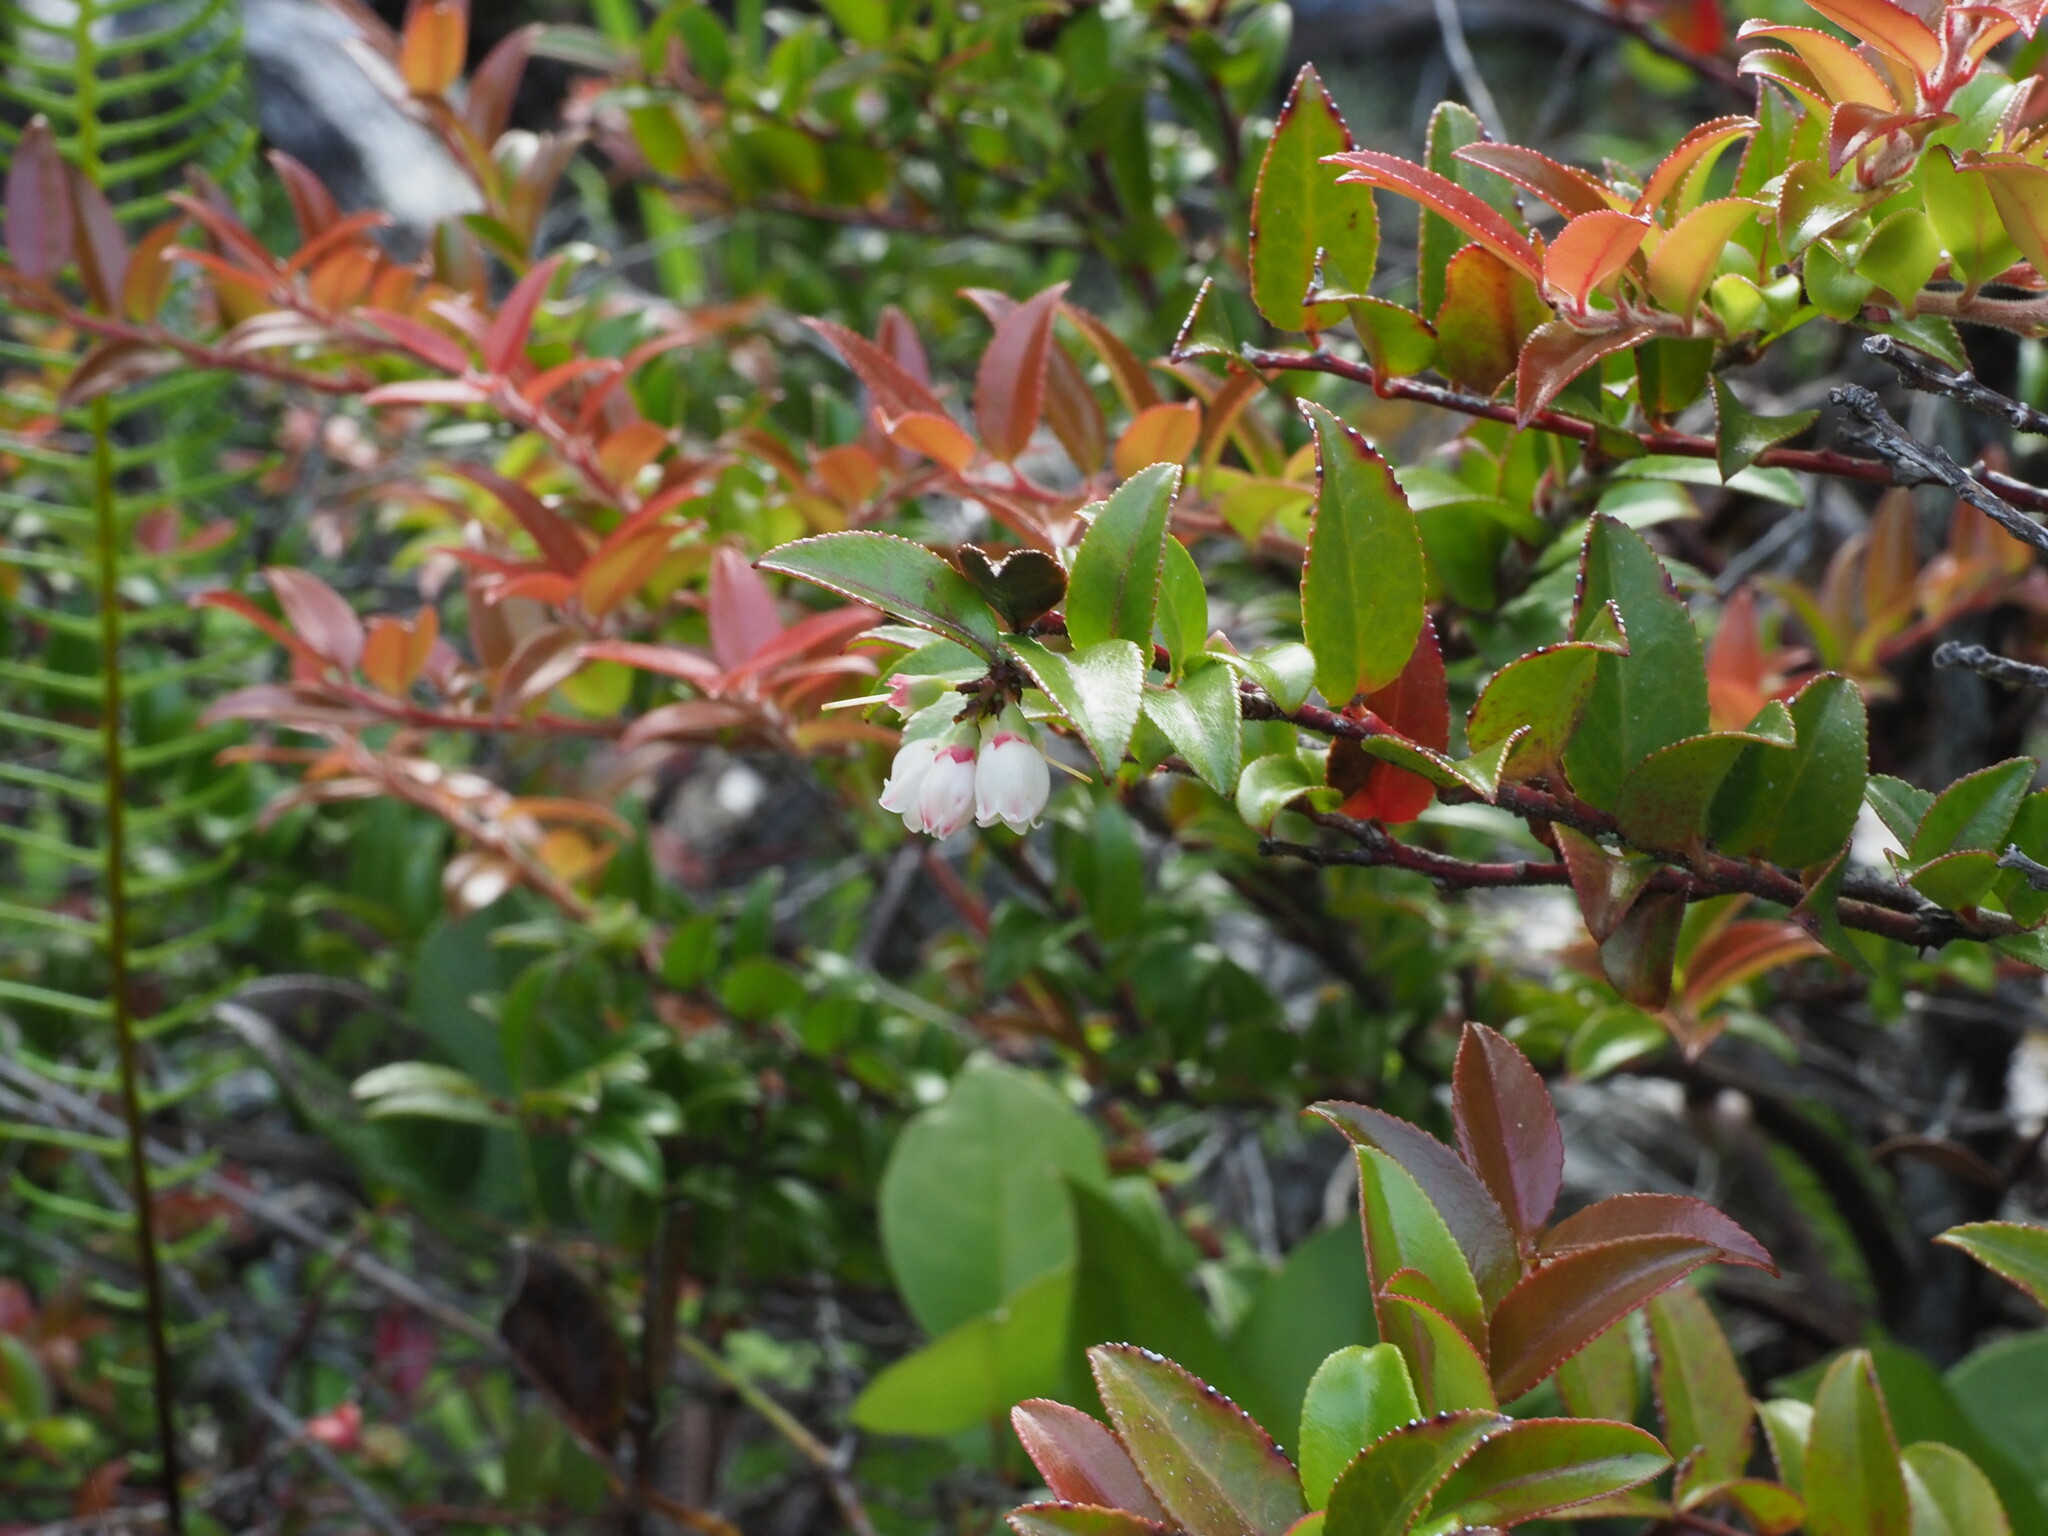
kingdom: Plantae
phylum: Tracheophyta
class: Magnoliopsida
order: Ericales
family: Ericaceae
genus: Vaccinium
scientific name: Vaccinium ovatum
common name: California-huckleberry
